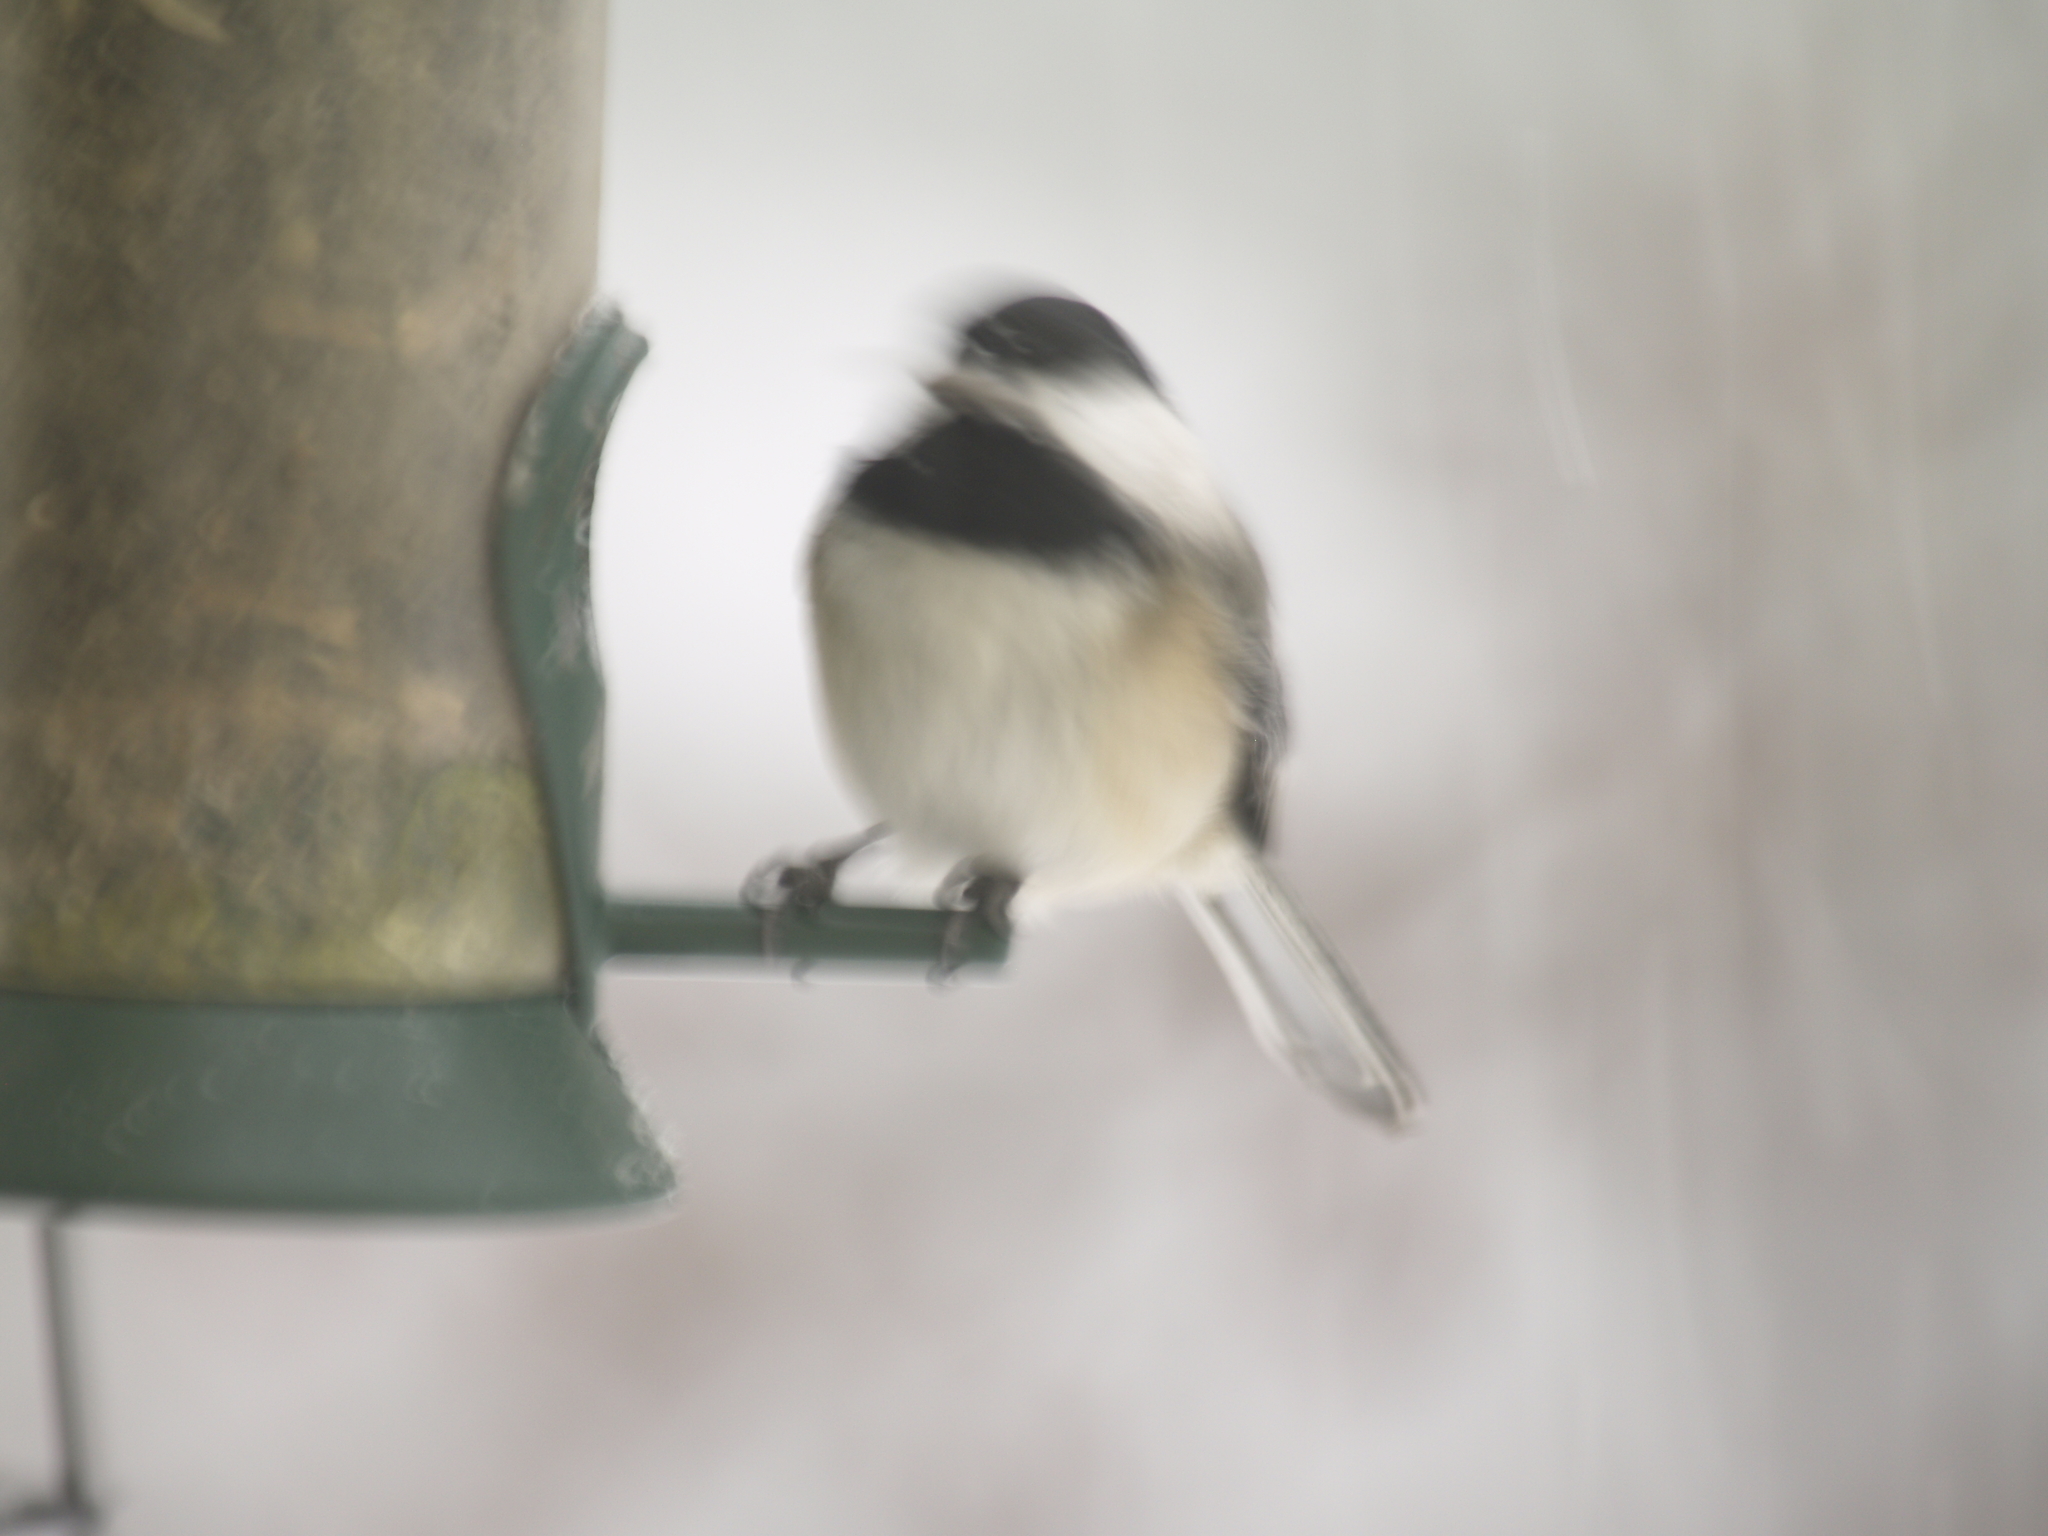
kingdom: Animalia
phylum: Chordata
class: Aves
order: Passeriformes
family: Paridae
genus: Poecile
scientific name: Poecile atricapillus
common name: Black-capped chickadee
